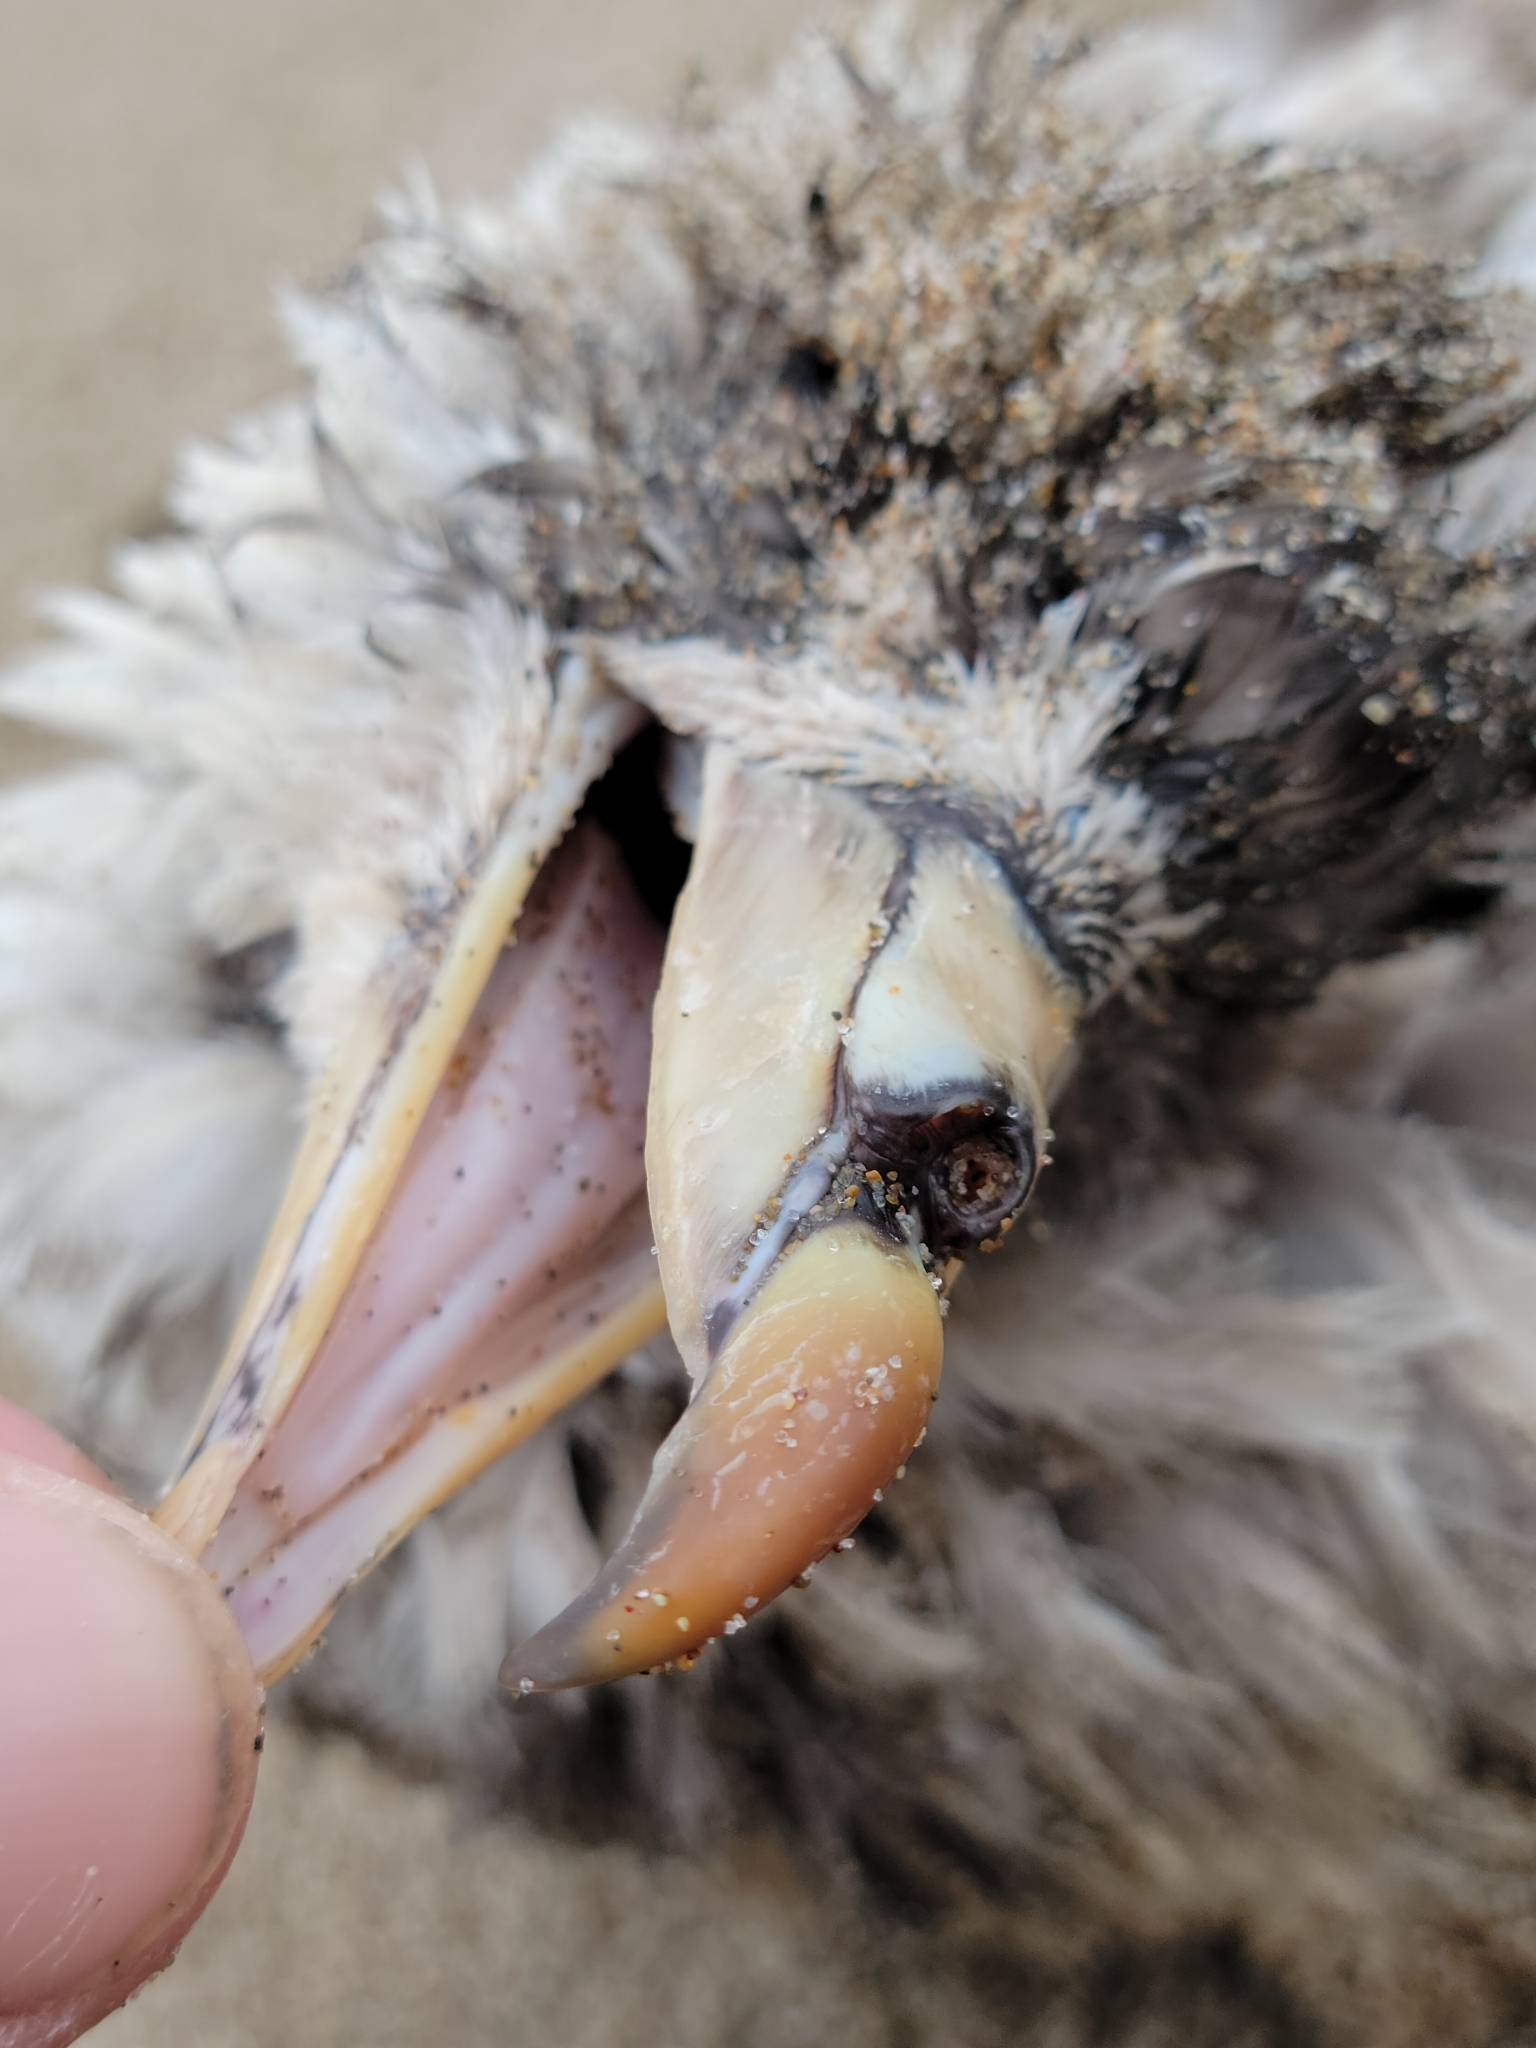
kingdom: Animalia
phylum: Chordata
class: Aves
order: Procellariiformes
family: Procellariidae
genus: Fulmarus
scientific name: Fulmarus glacialis
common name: Northern fulmar
